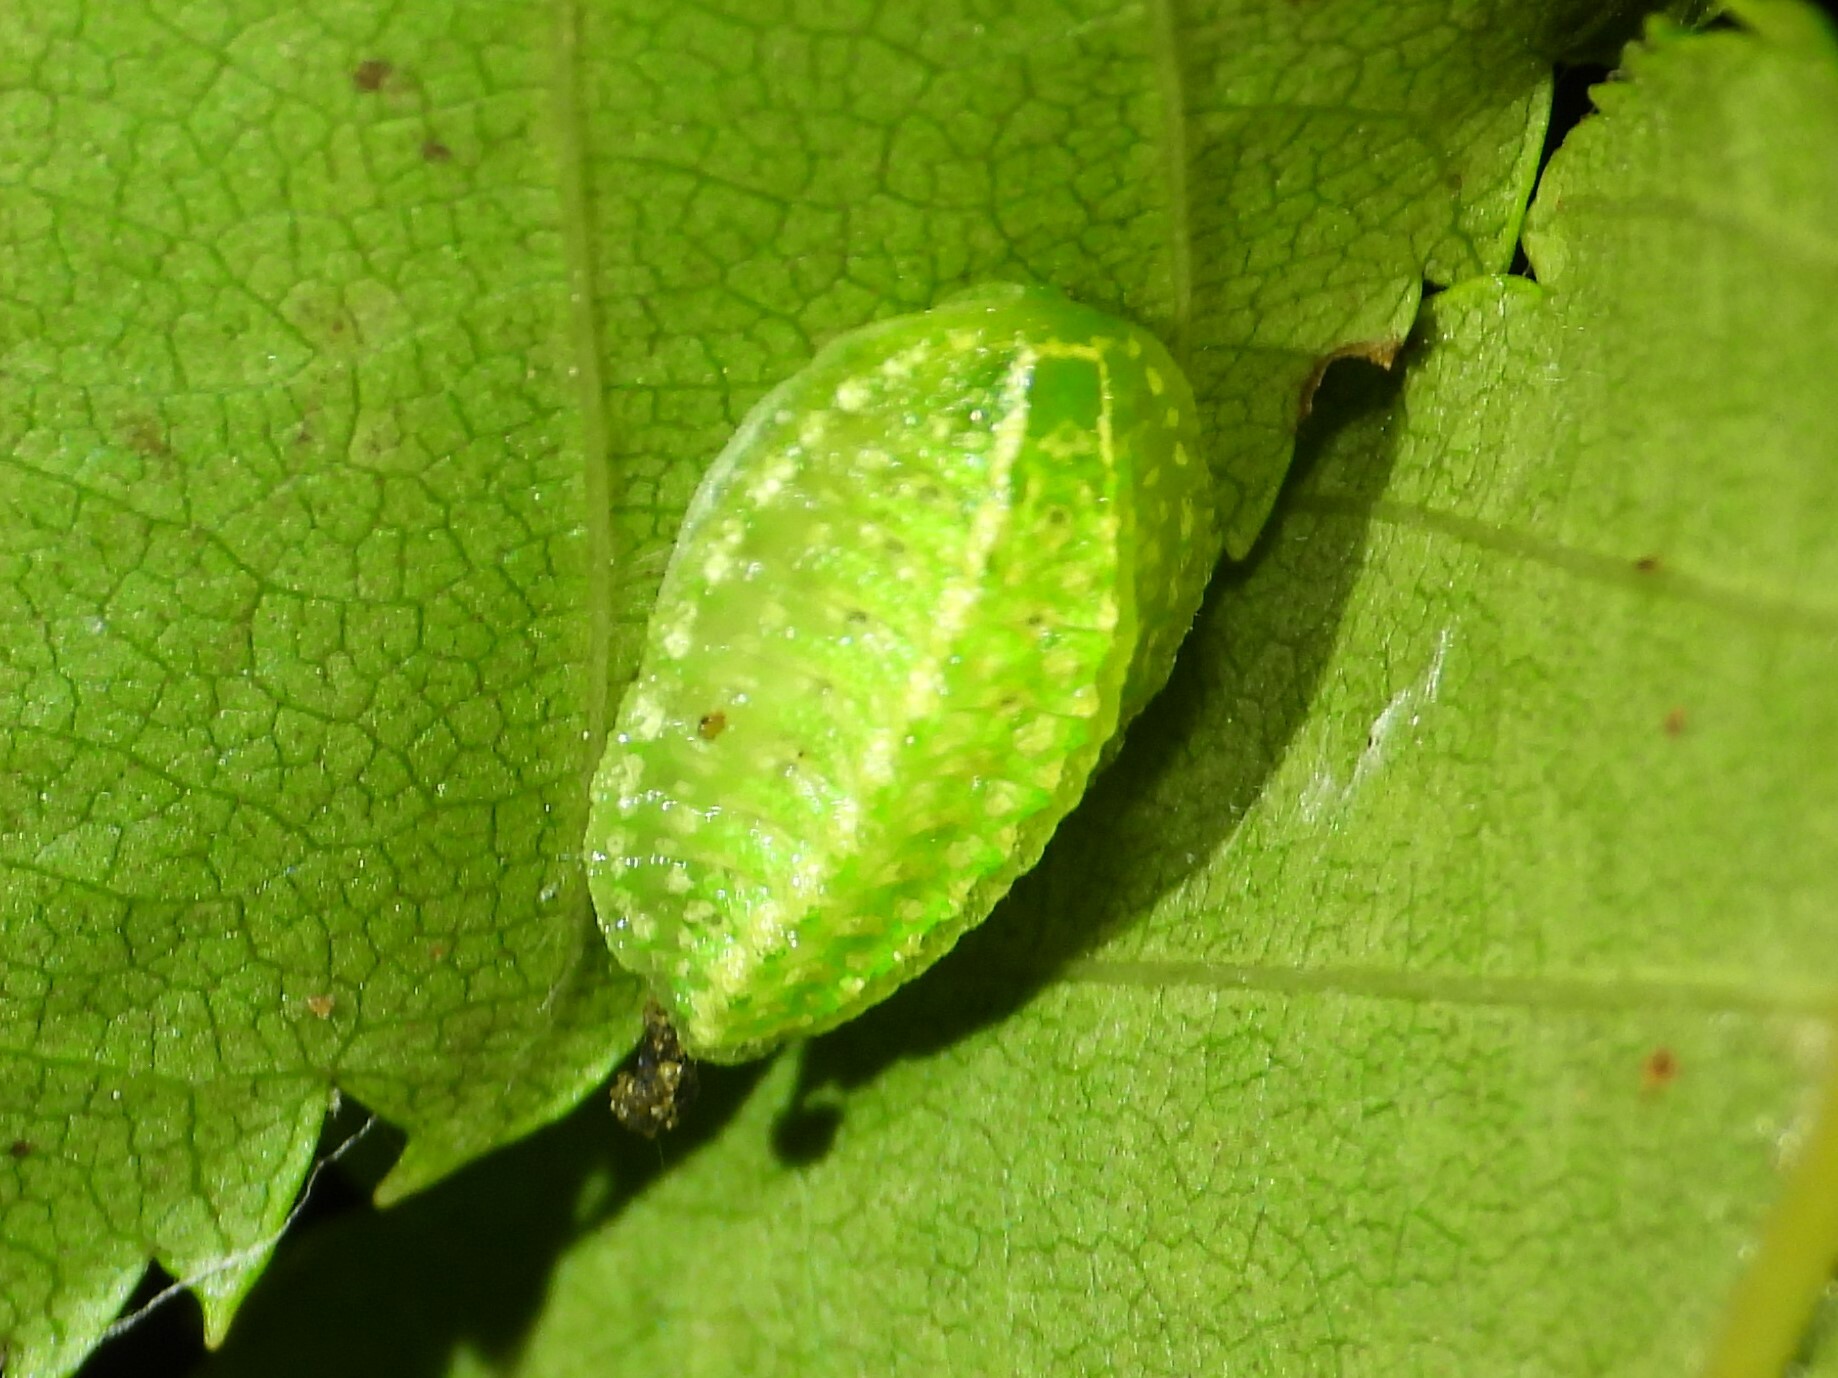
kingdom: Animalia
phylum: Arthropoda
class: Insecta
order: Lepidoptera
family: Limacodidae
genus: Lithacodes
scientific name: Lithacodes fasciola
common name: Yellow-shouldered slug moth
